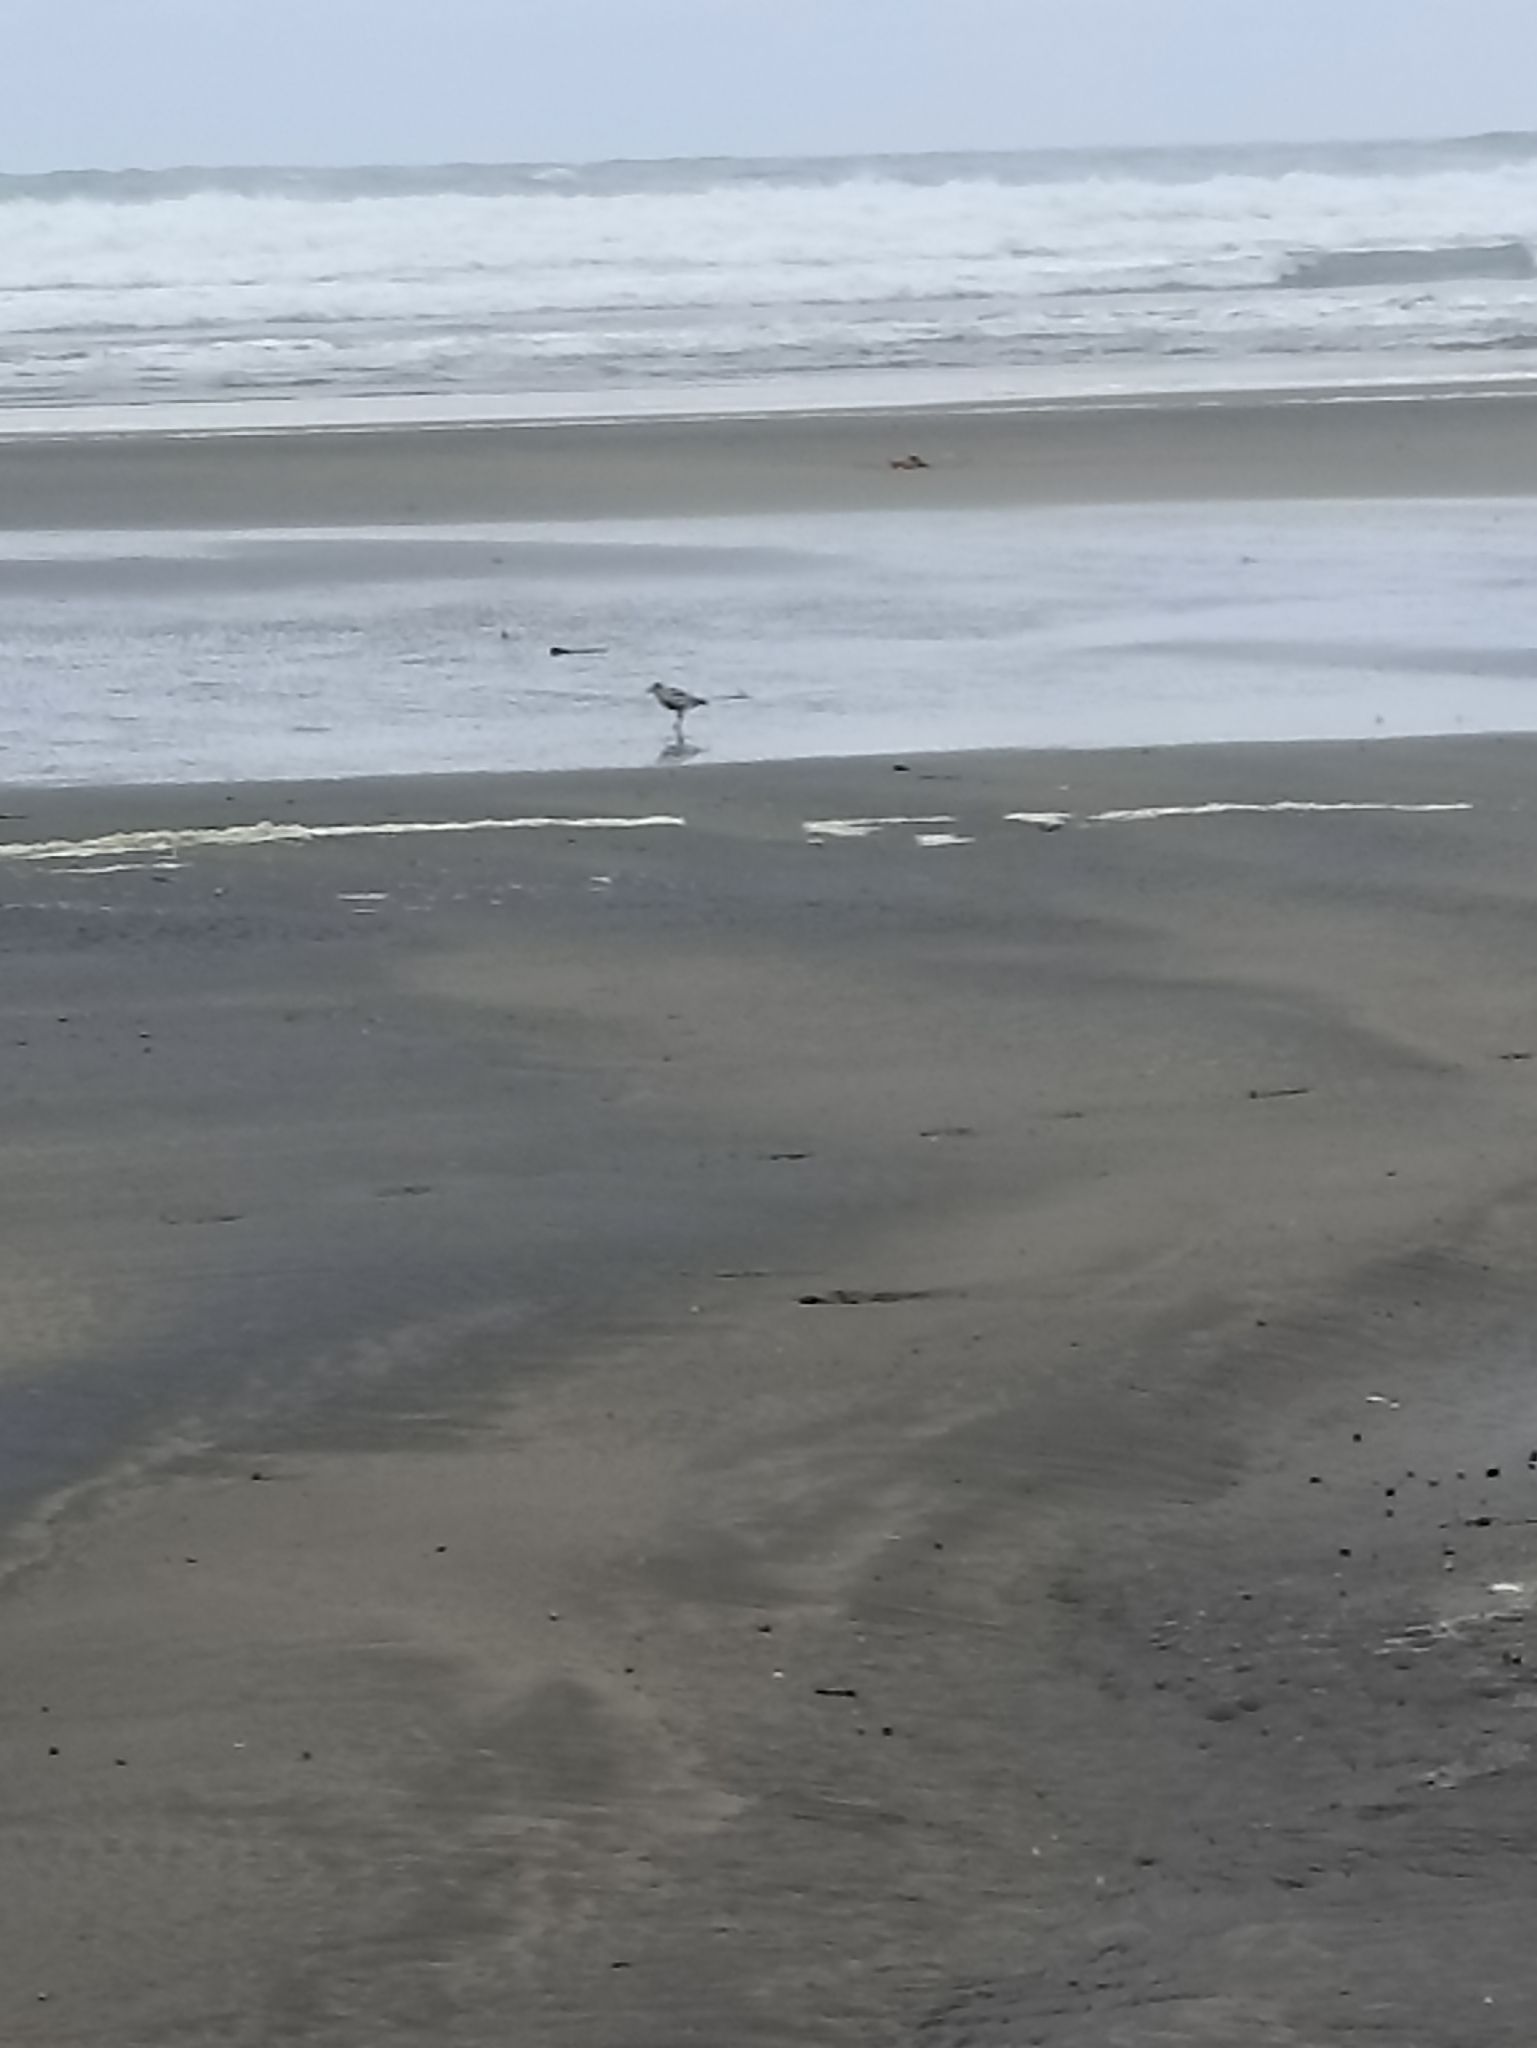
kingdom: Animalia
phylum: Chordata
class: Aves
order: Charadriiformes
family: Charadriidae
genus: Anarhynchus
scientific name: Anarhynchus
